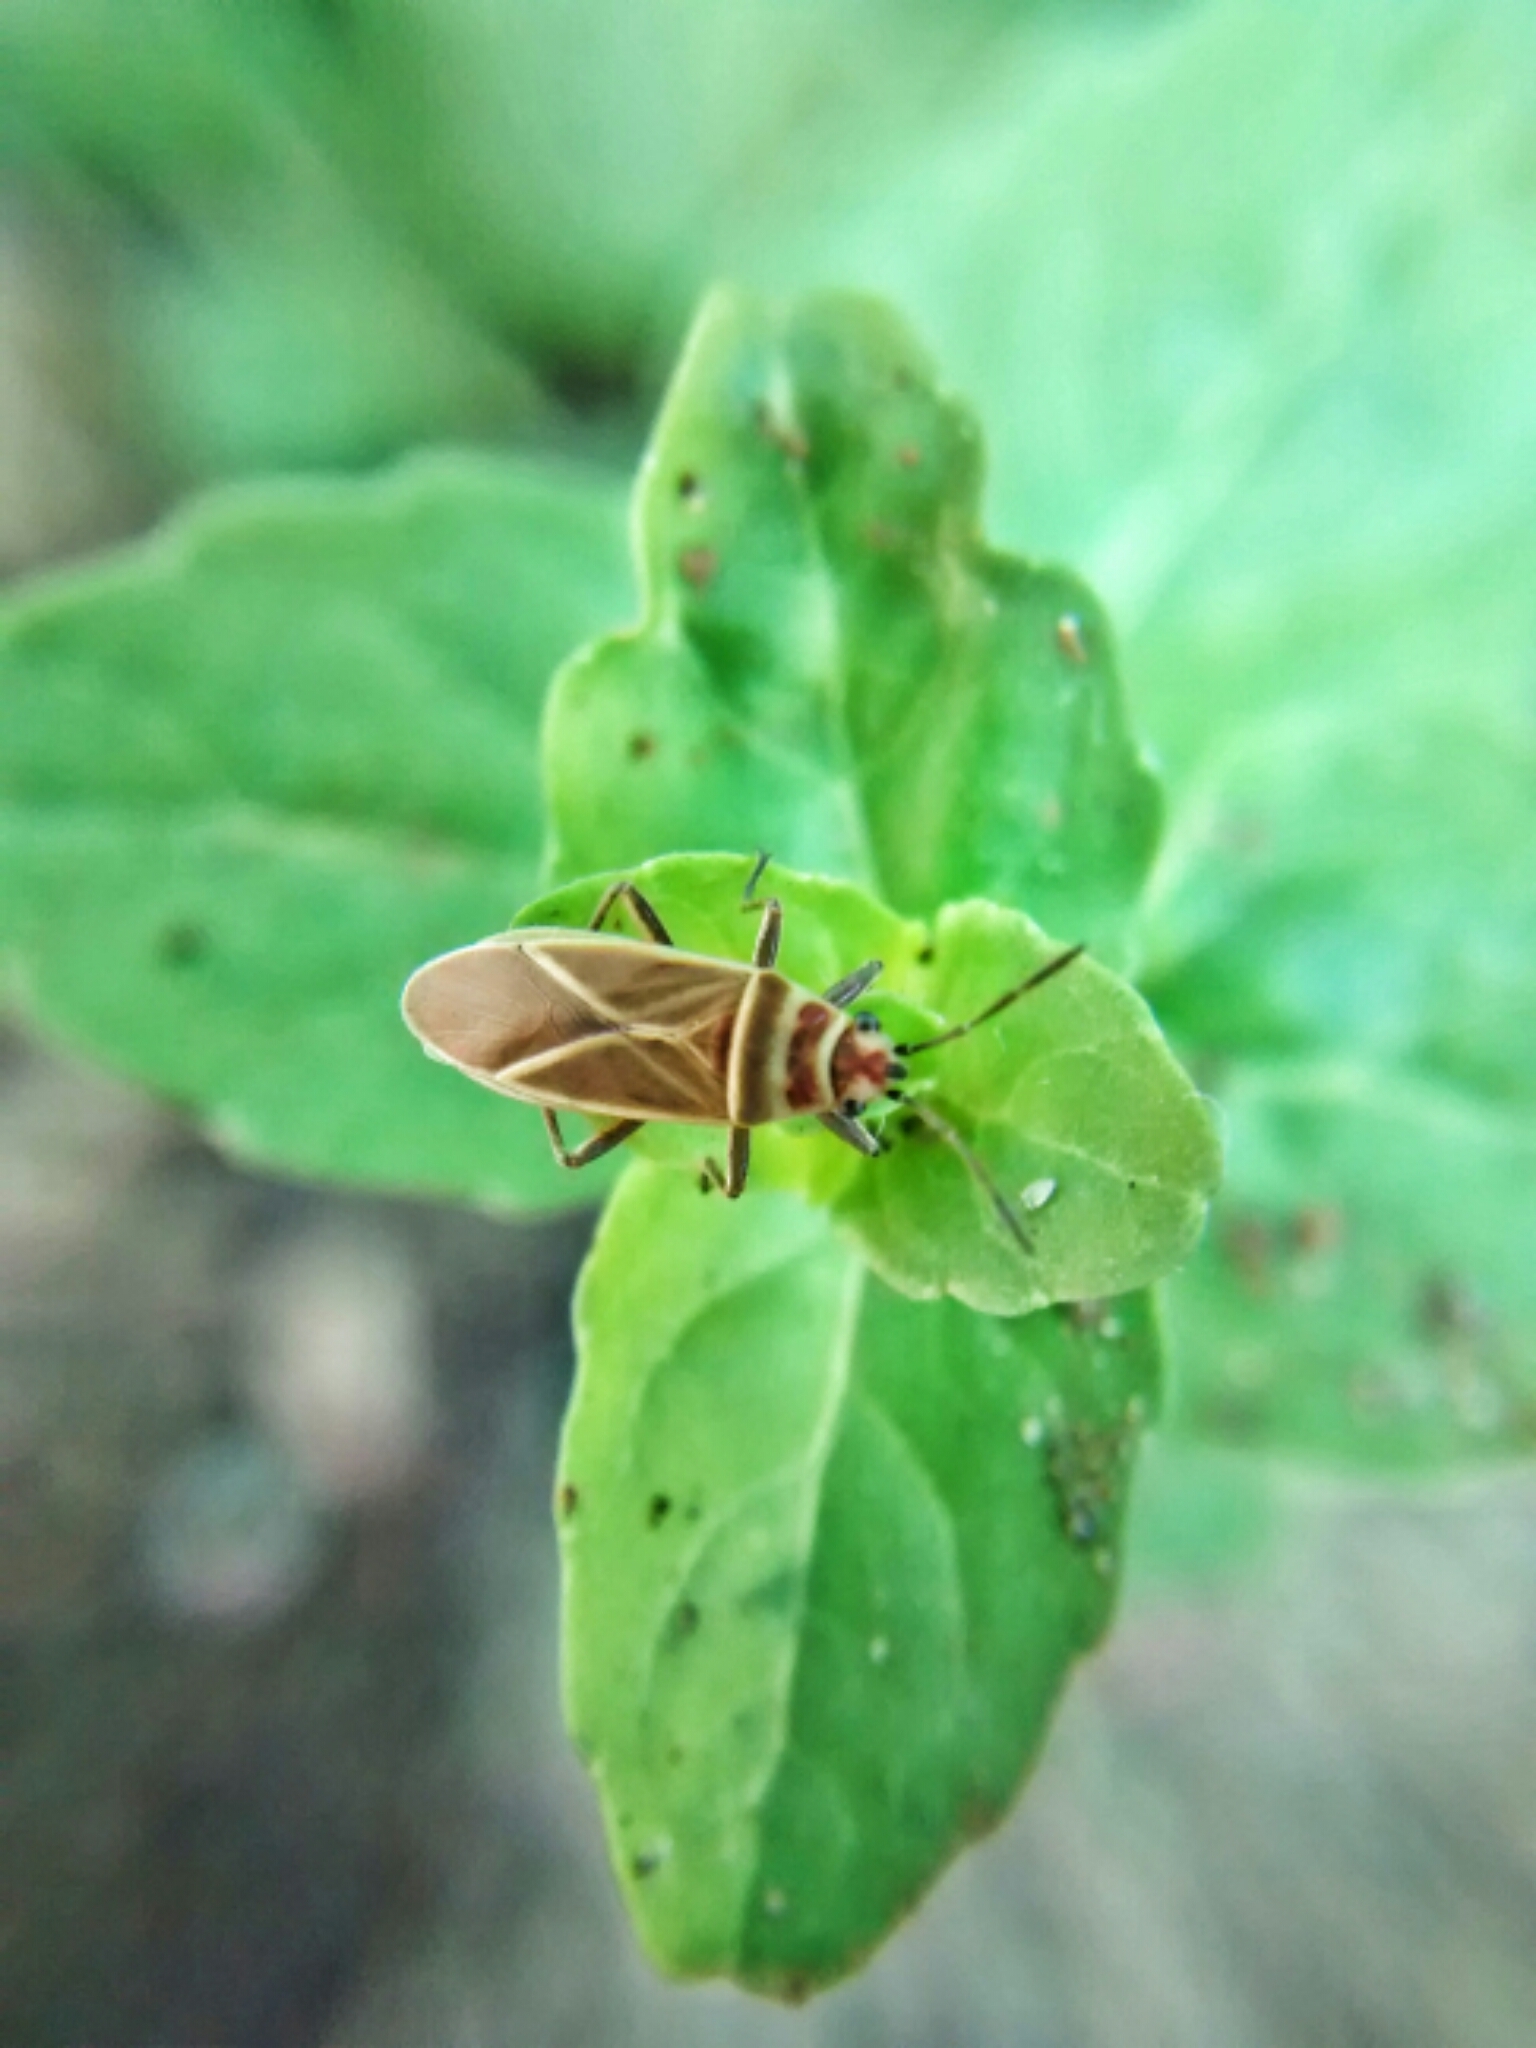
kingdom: Animalia
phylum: Arthropoda
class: Insecta
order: Hemiptera
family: Lygaeidae
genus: Ochrimnus
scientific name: Ochrimnus pallescens
